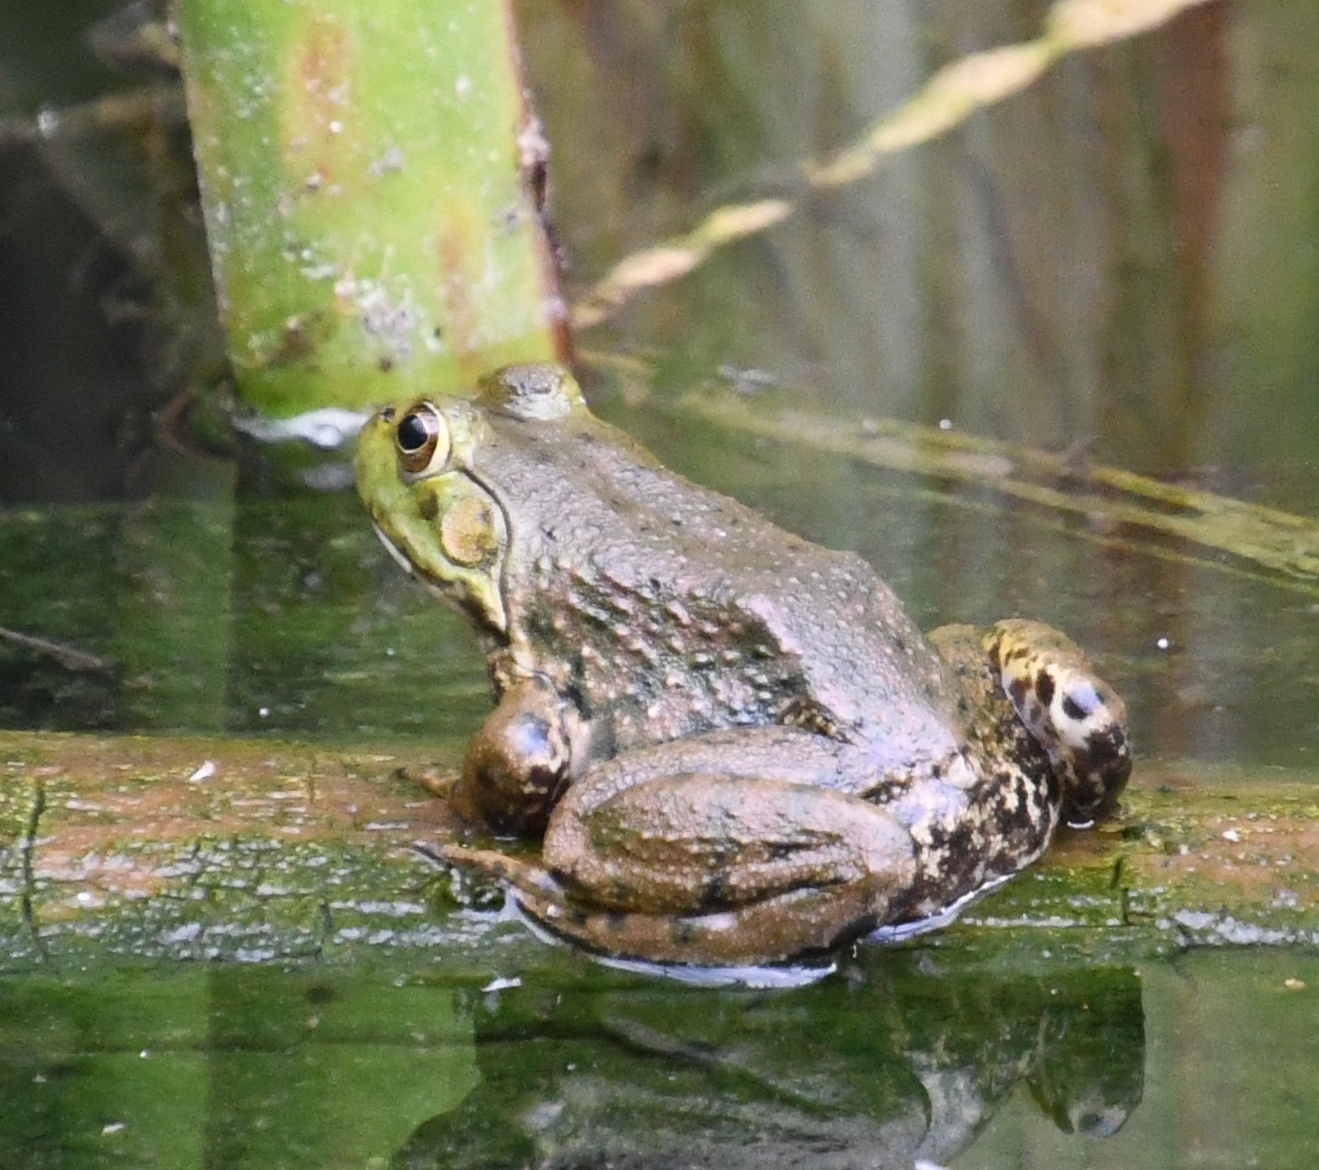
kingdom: Animalia
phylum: Chordata
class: Amphibia
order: Anura
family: Ranidae
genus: Lithobates
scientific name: Lithobates catesbeianus
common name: American bullfrog
